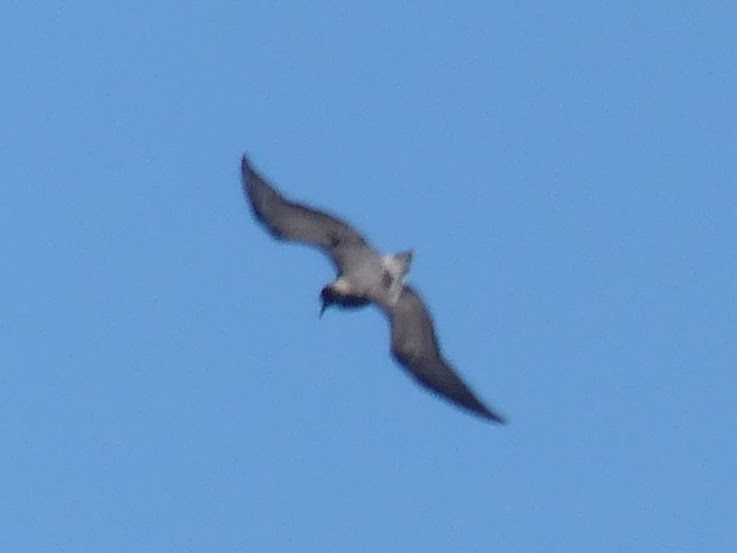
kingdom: Animalia
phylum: Chordata
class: Aves
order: Charadriiformes
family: Stercorariidae
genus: Stercorarius
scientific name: Stercorarius longicaudus
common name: Long-tailed jaeger
